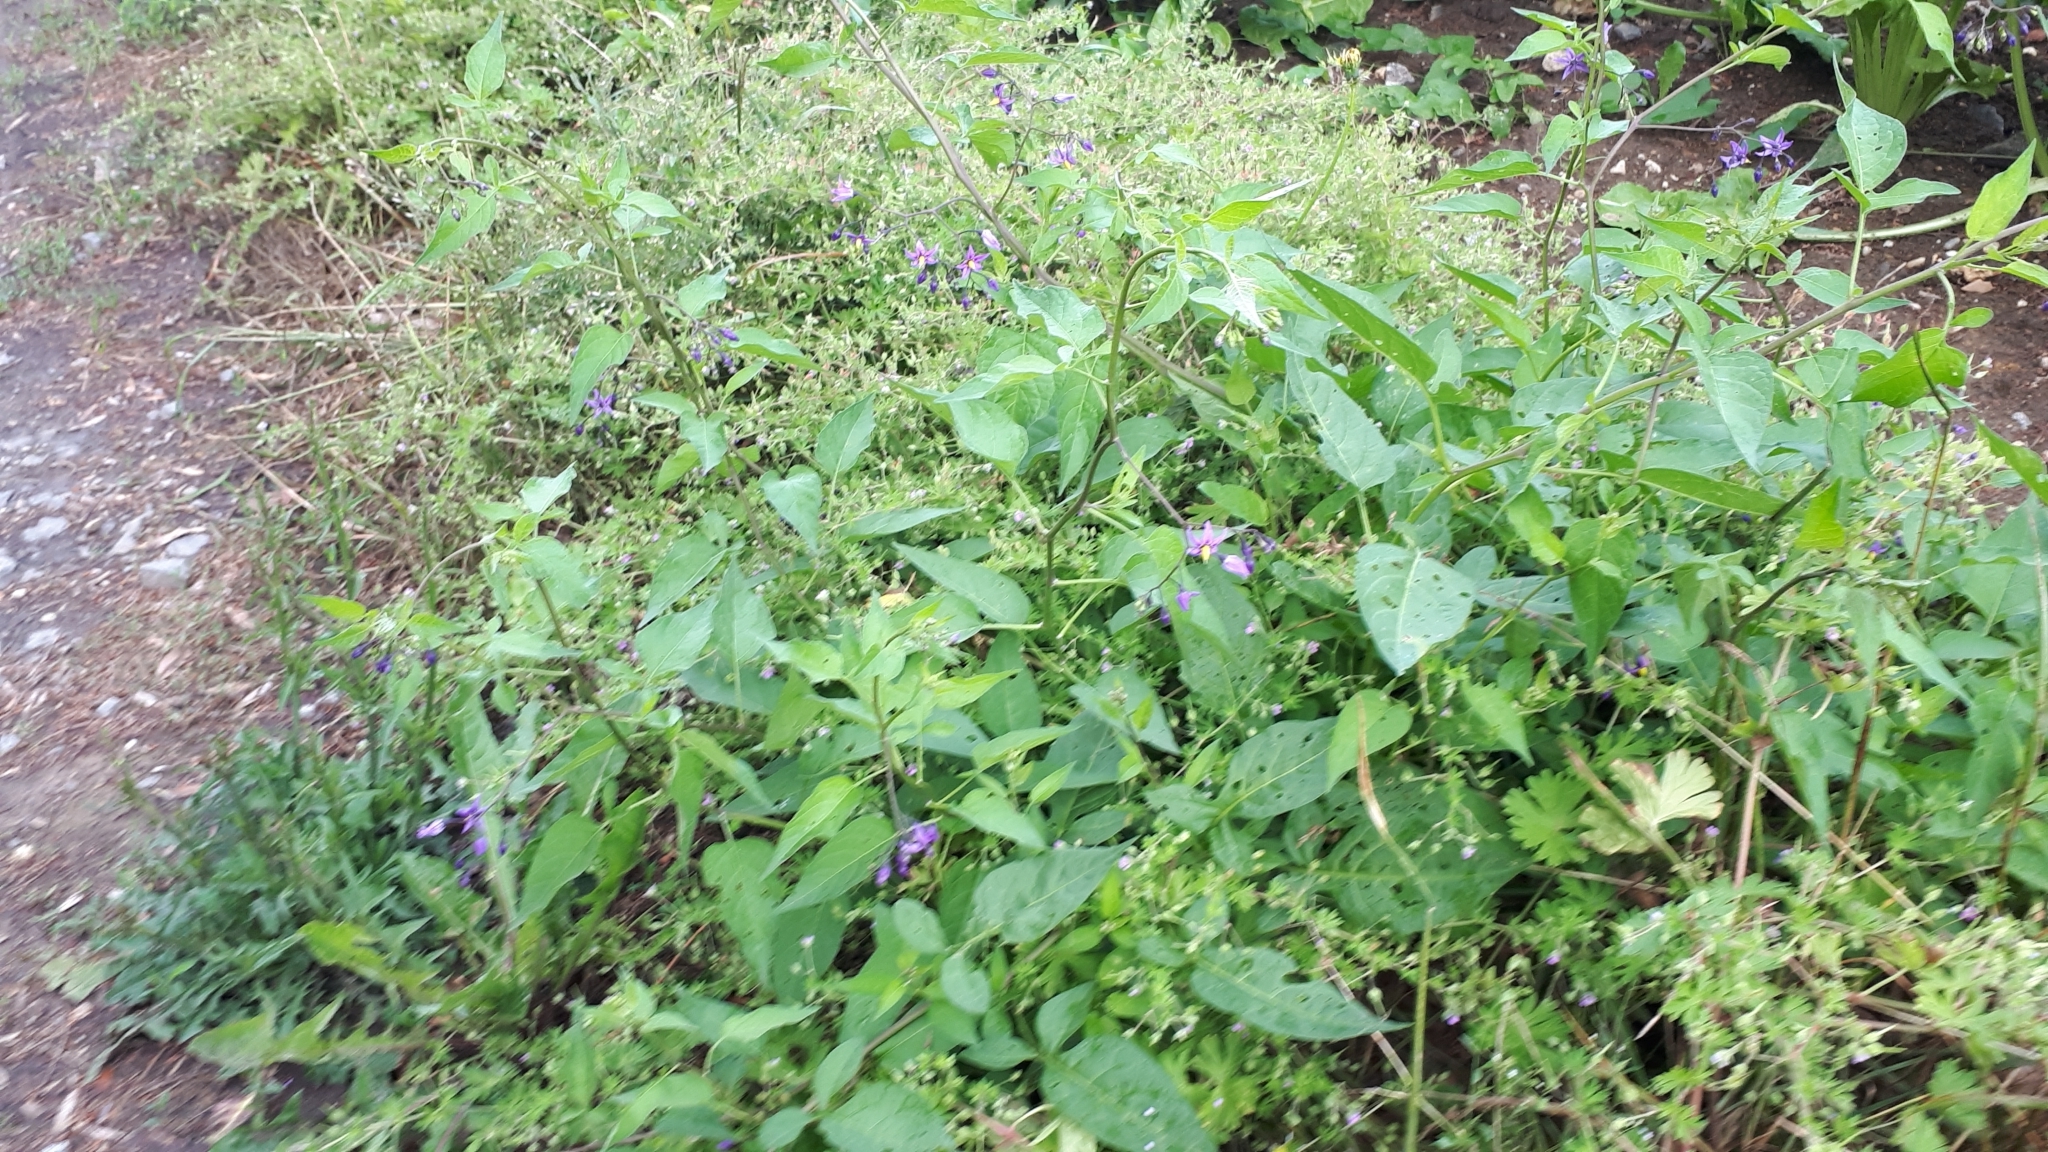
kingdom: Plantae
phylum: Tracheophyta
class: Magnoliopsida
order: Solanales
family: Solanaceae
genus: Solanum
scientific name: Solanum dulcamara
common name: Climbing nightshade
